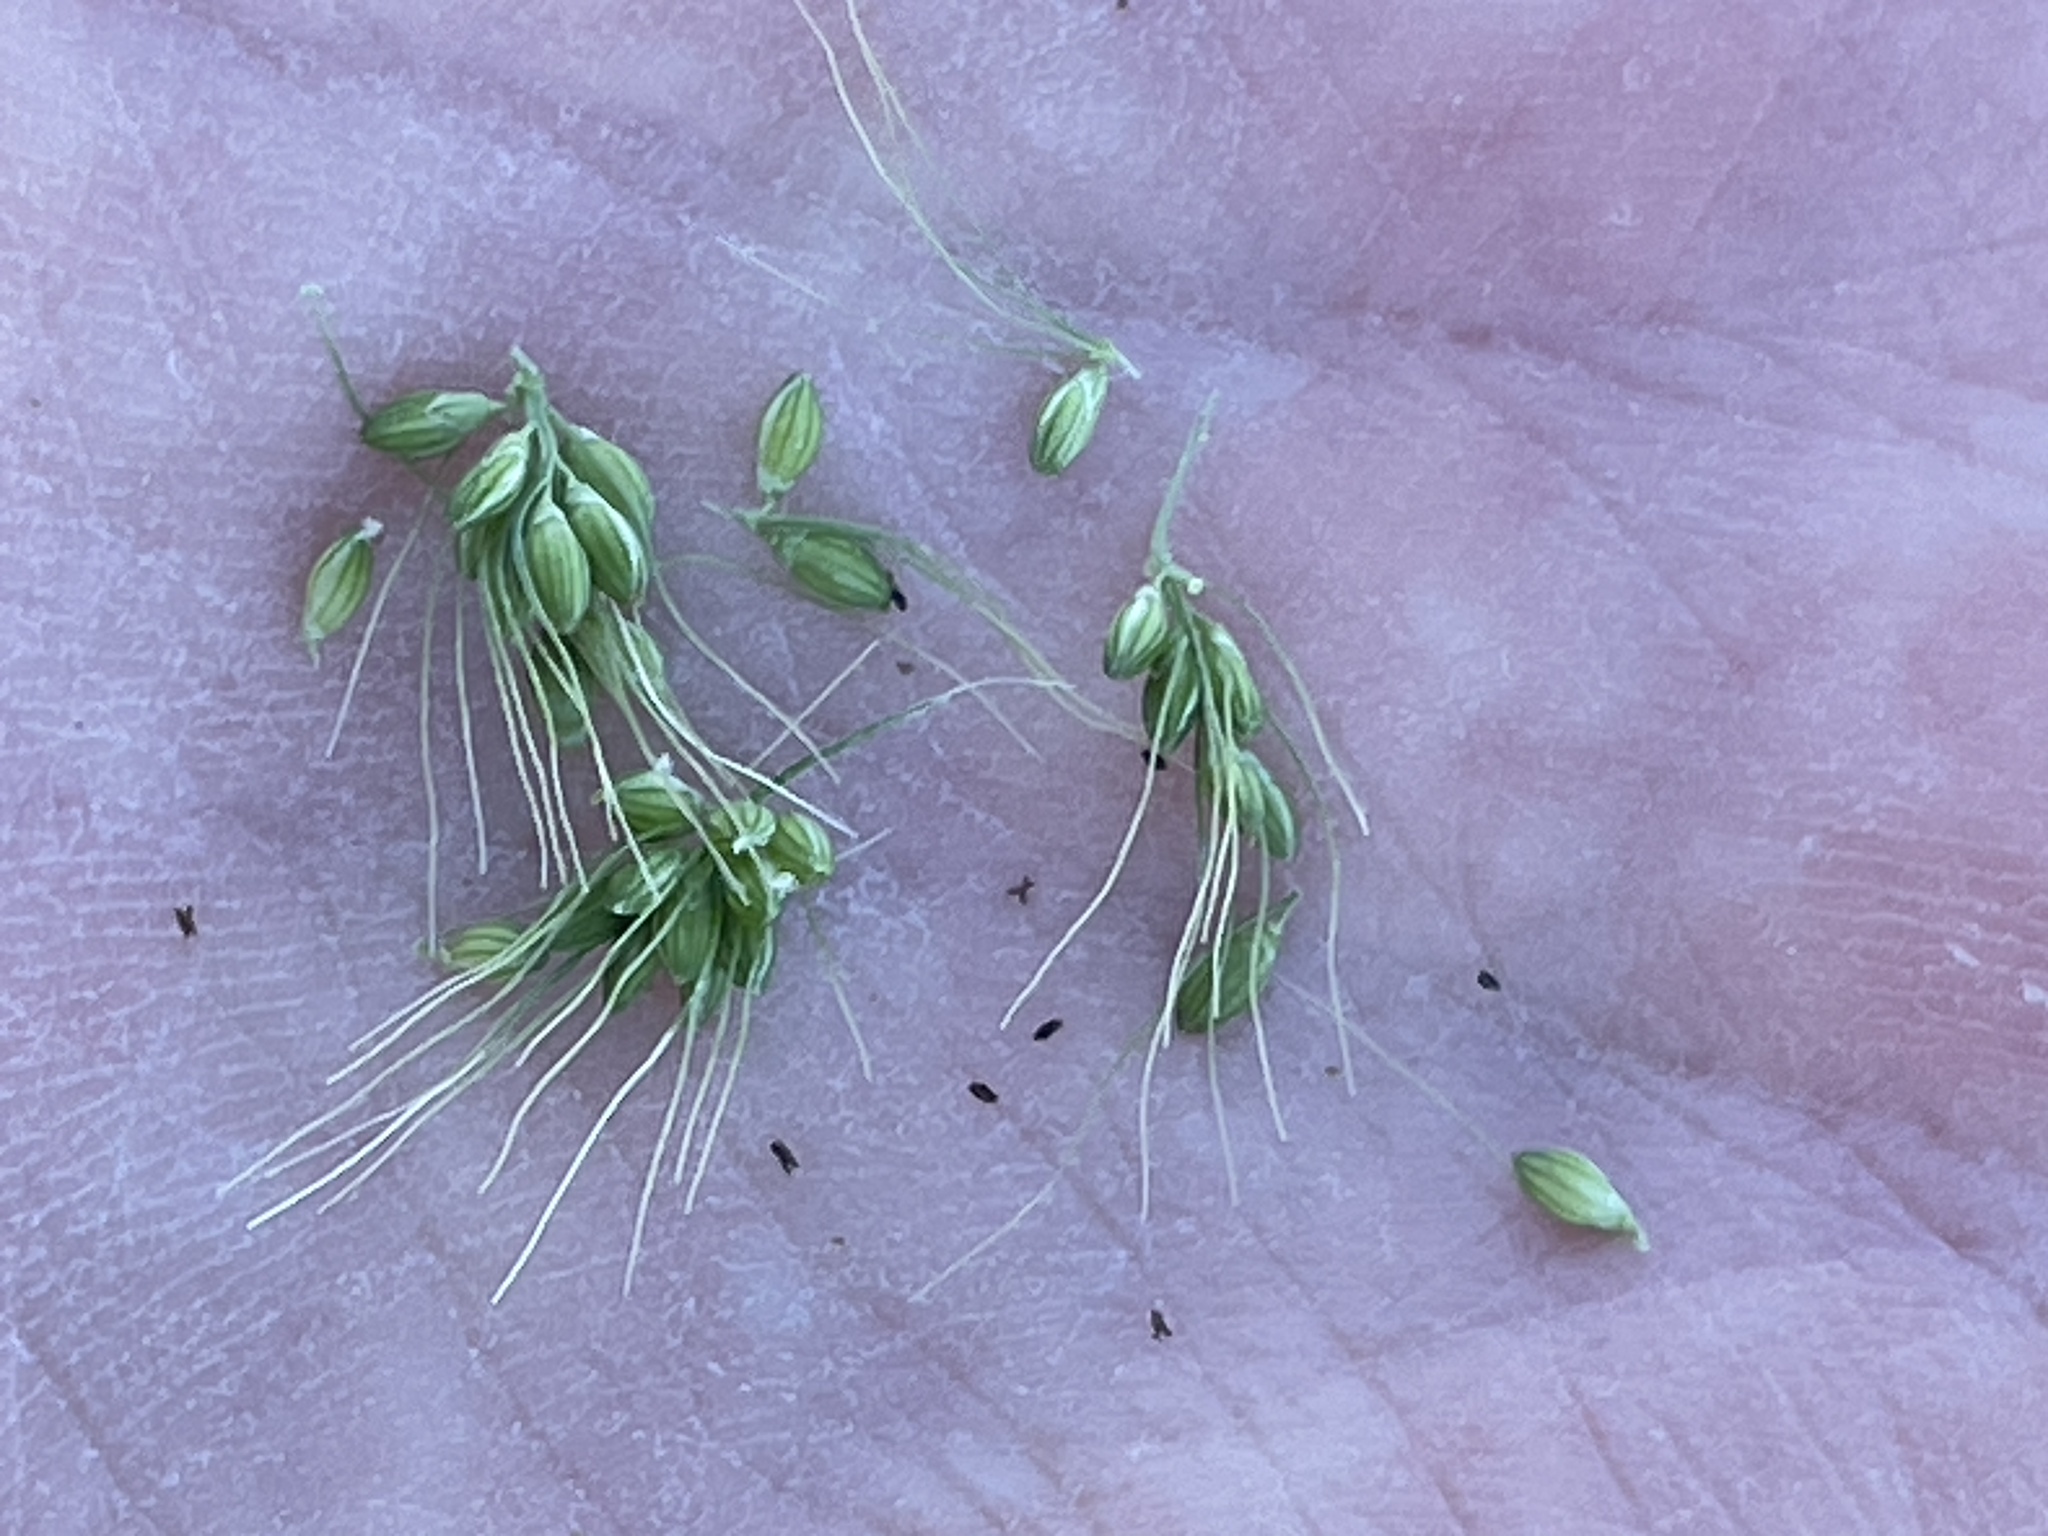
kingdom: Plantae
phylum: Tracheophyta
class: Liliopsida
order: Poales
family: Poaceae
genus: Setaria
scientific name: Setaria viridis
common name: Green bristlegrass
